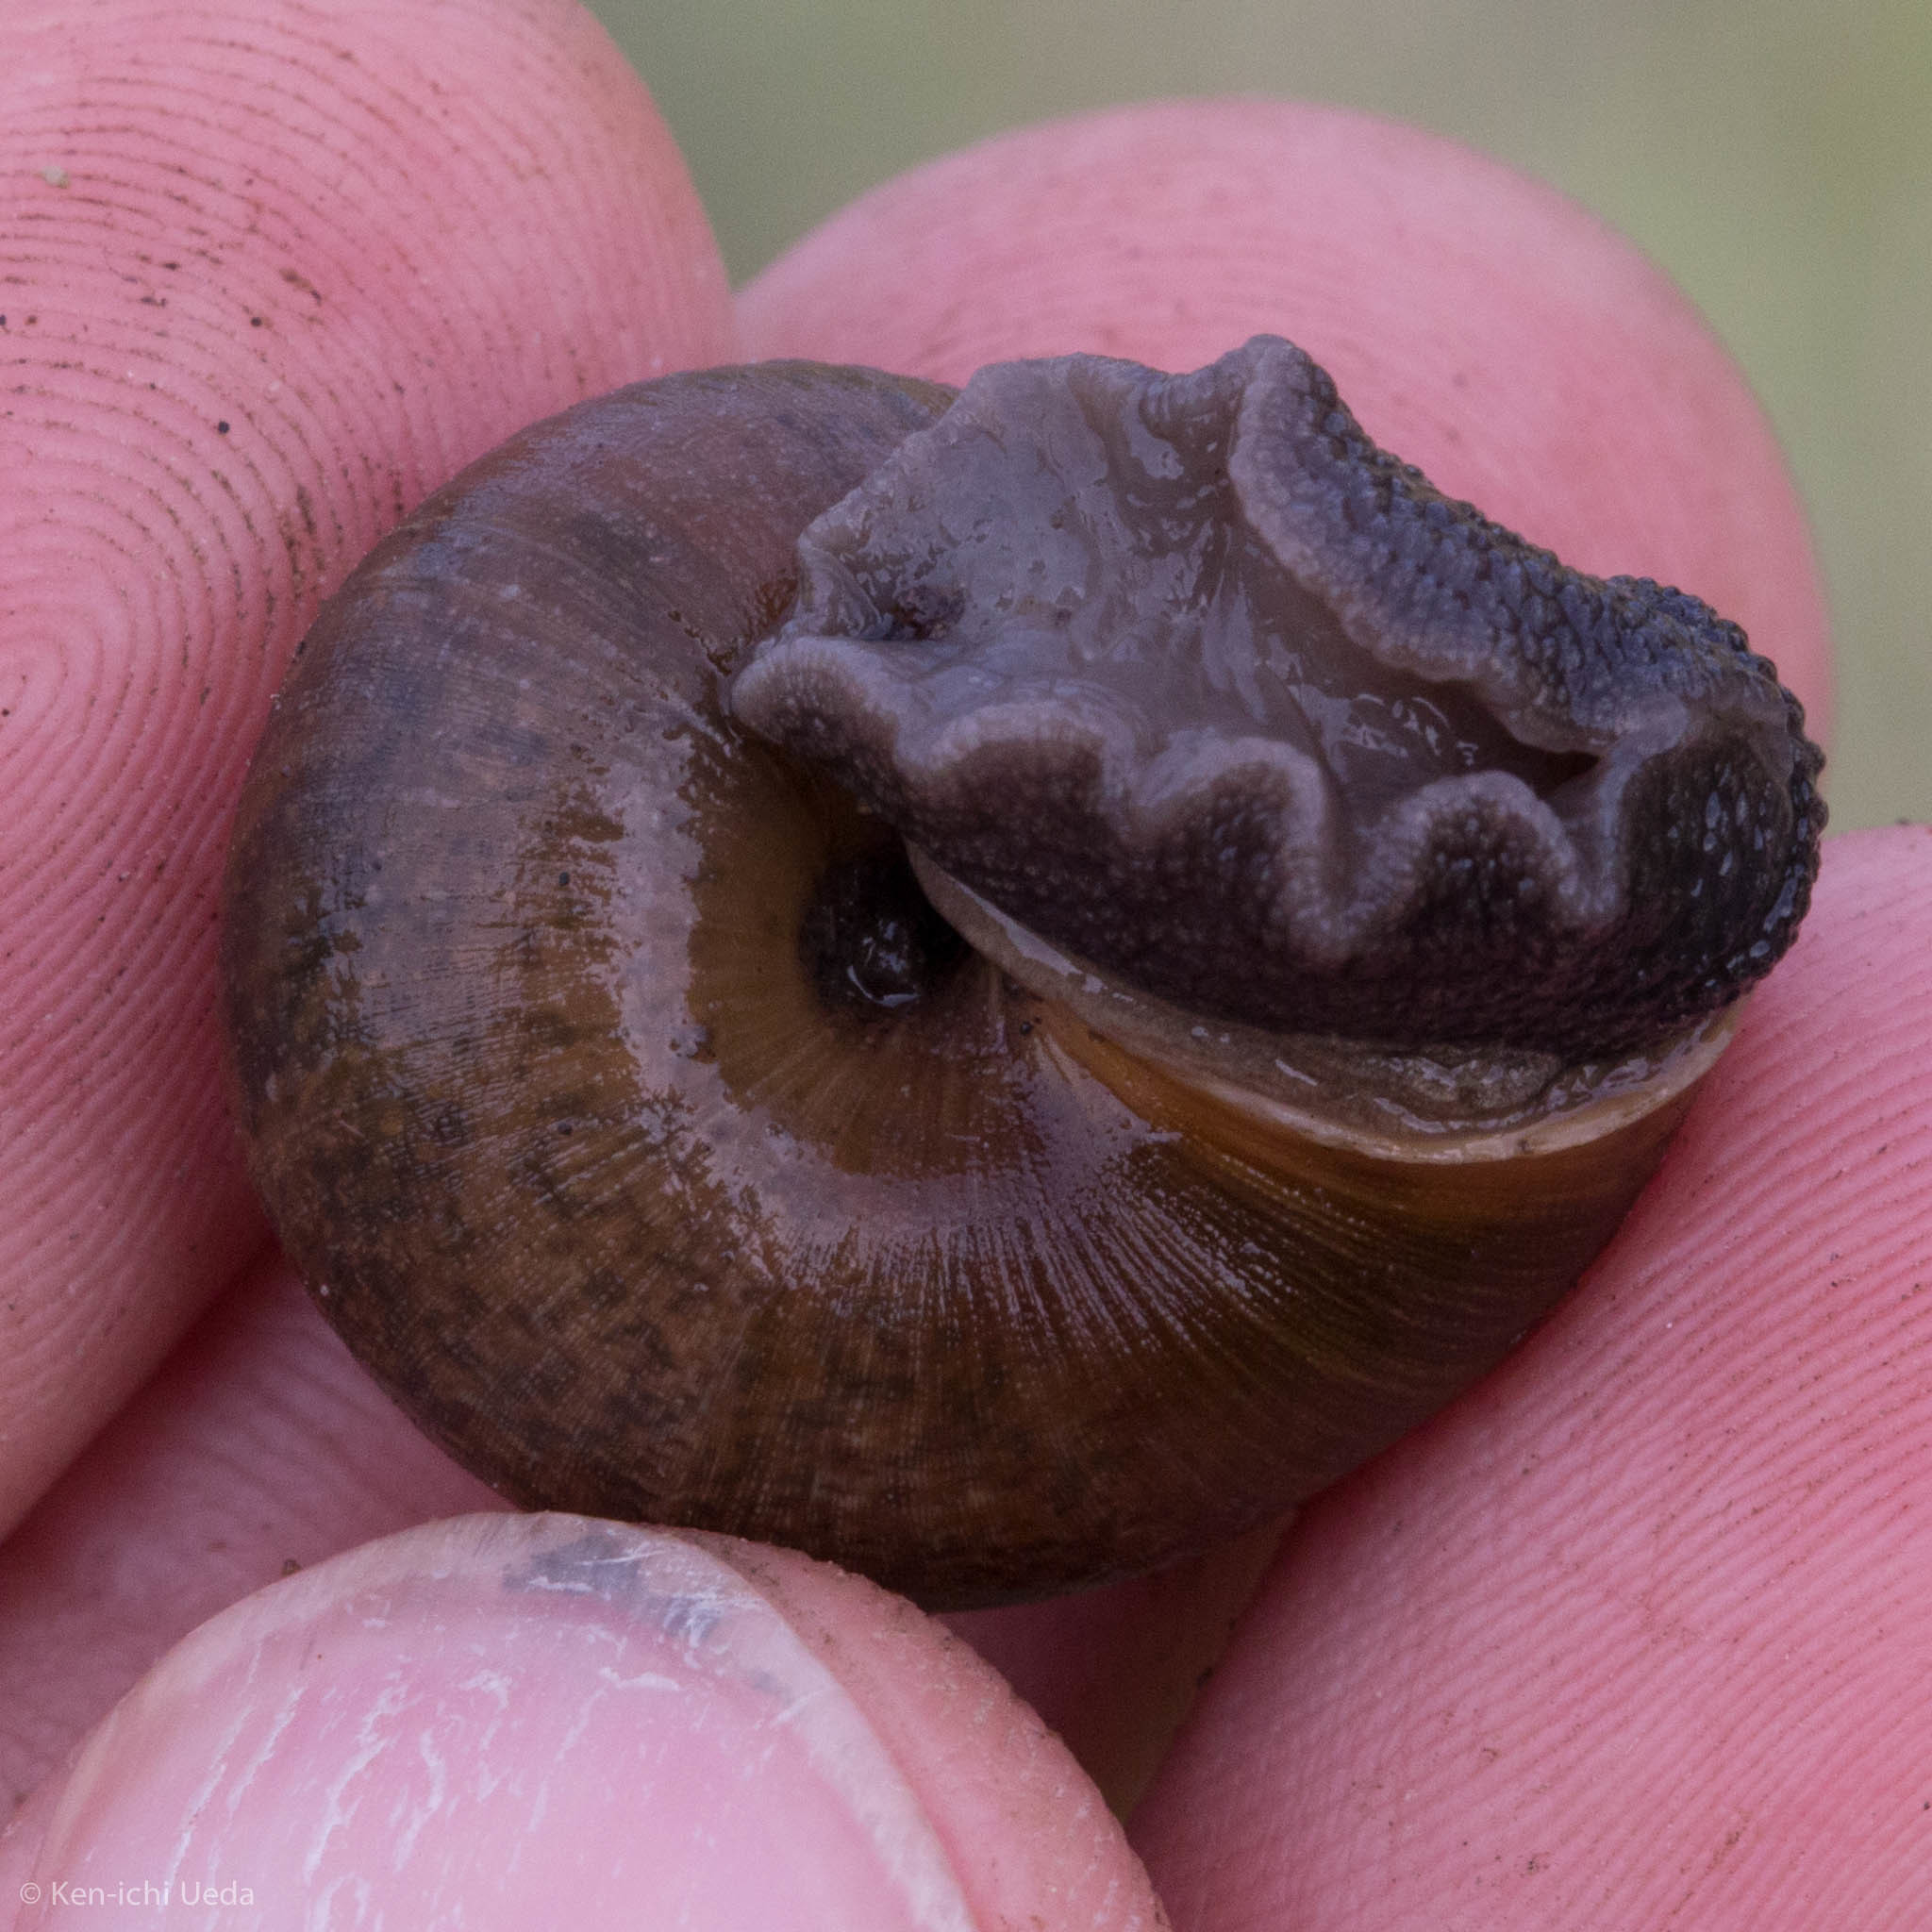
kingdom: Animalia
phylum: Mollusca
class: Gastropoda
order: Stylommatophora
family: Xanthonychidae
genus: Helminthoglypta
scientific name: Helminthoglypta diabloensis
